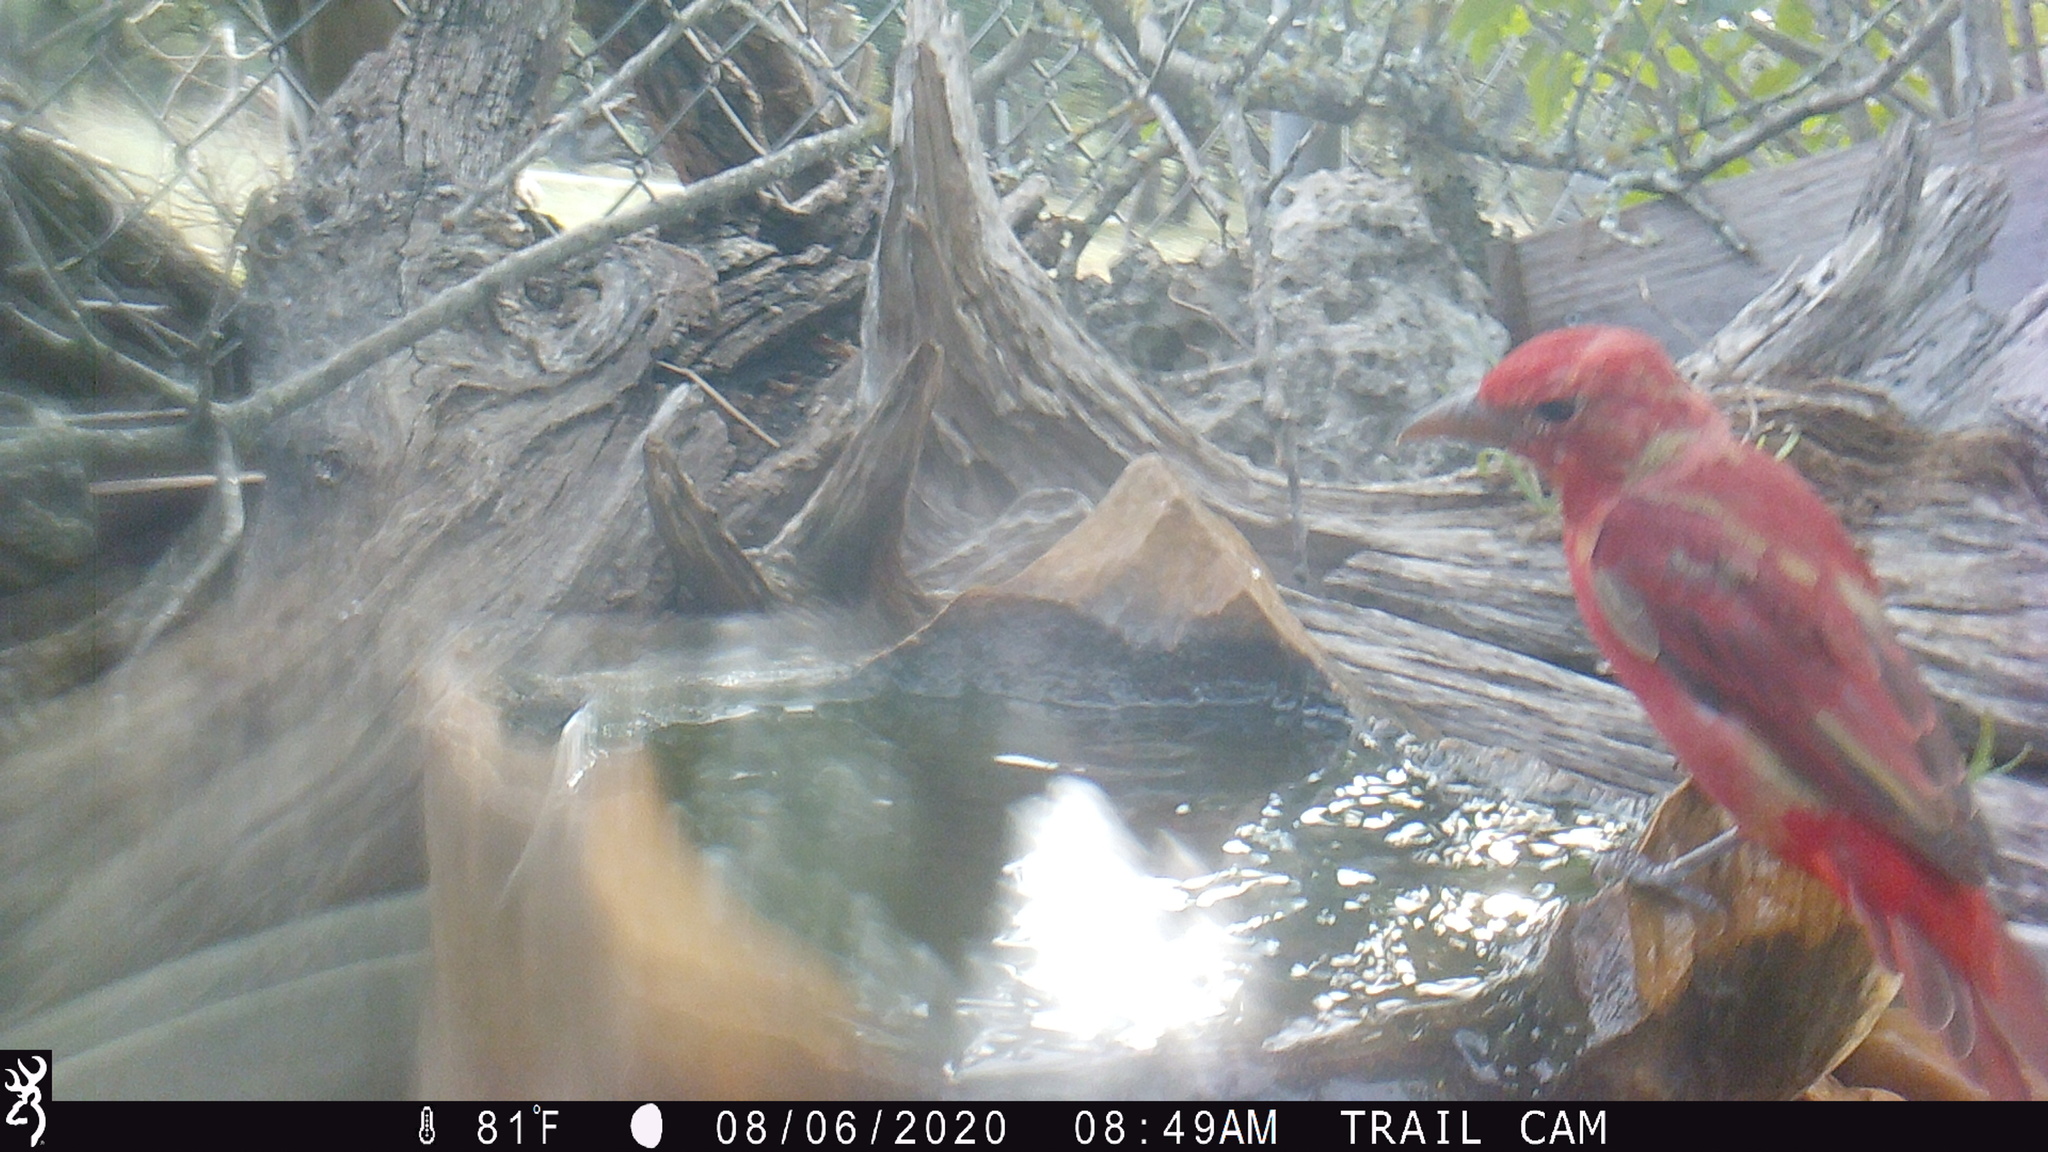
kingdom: Animalia
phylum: Chordata
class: Aves
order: Passeriformes
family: Cardinalidae
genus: Piranga
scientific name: Piranga rubra
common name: Summer tanager
